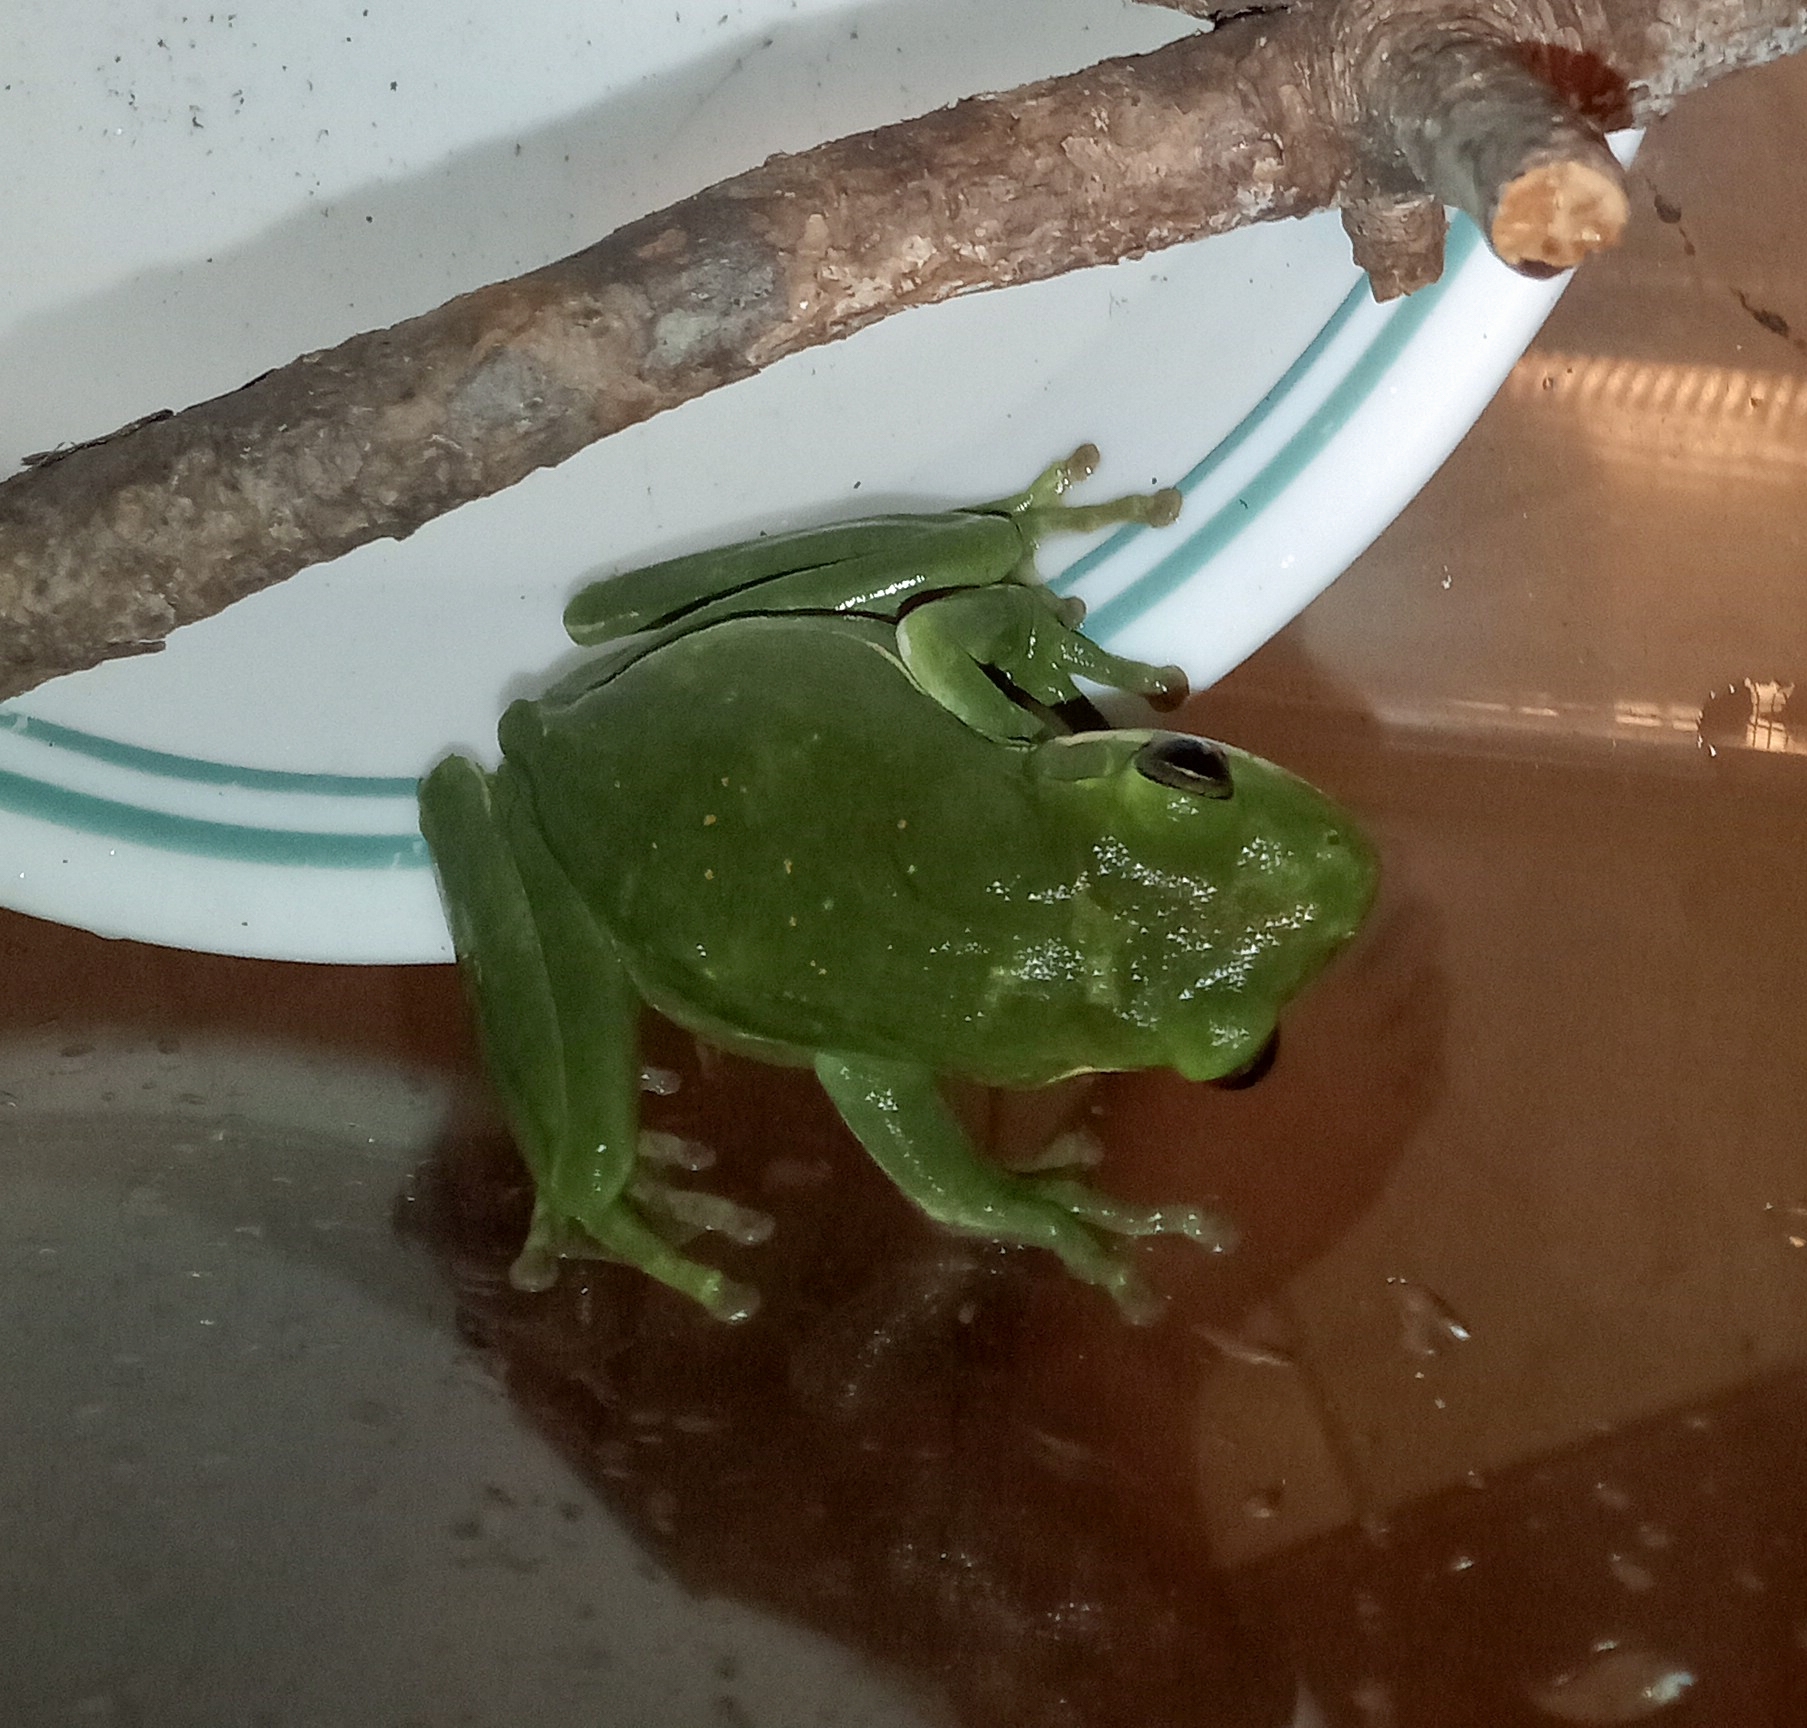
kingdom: Animalia
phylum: Chordata
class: Amphibia
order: Anura
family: Hylidae
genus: Dryophytes
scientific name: Dryophytes cinereus
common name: Green treefrog
